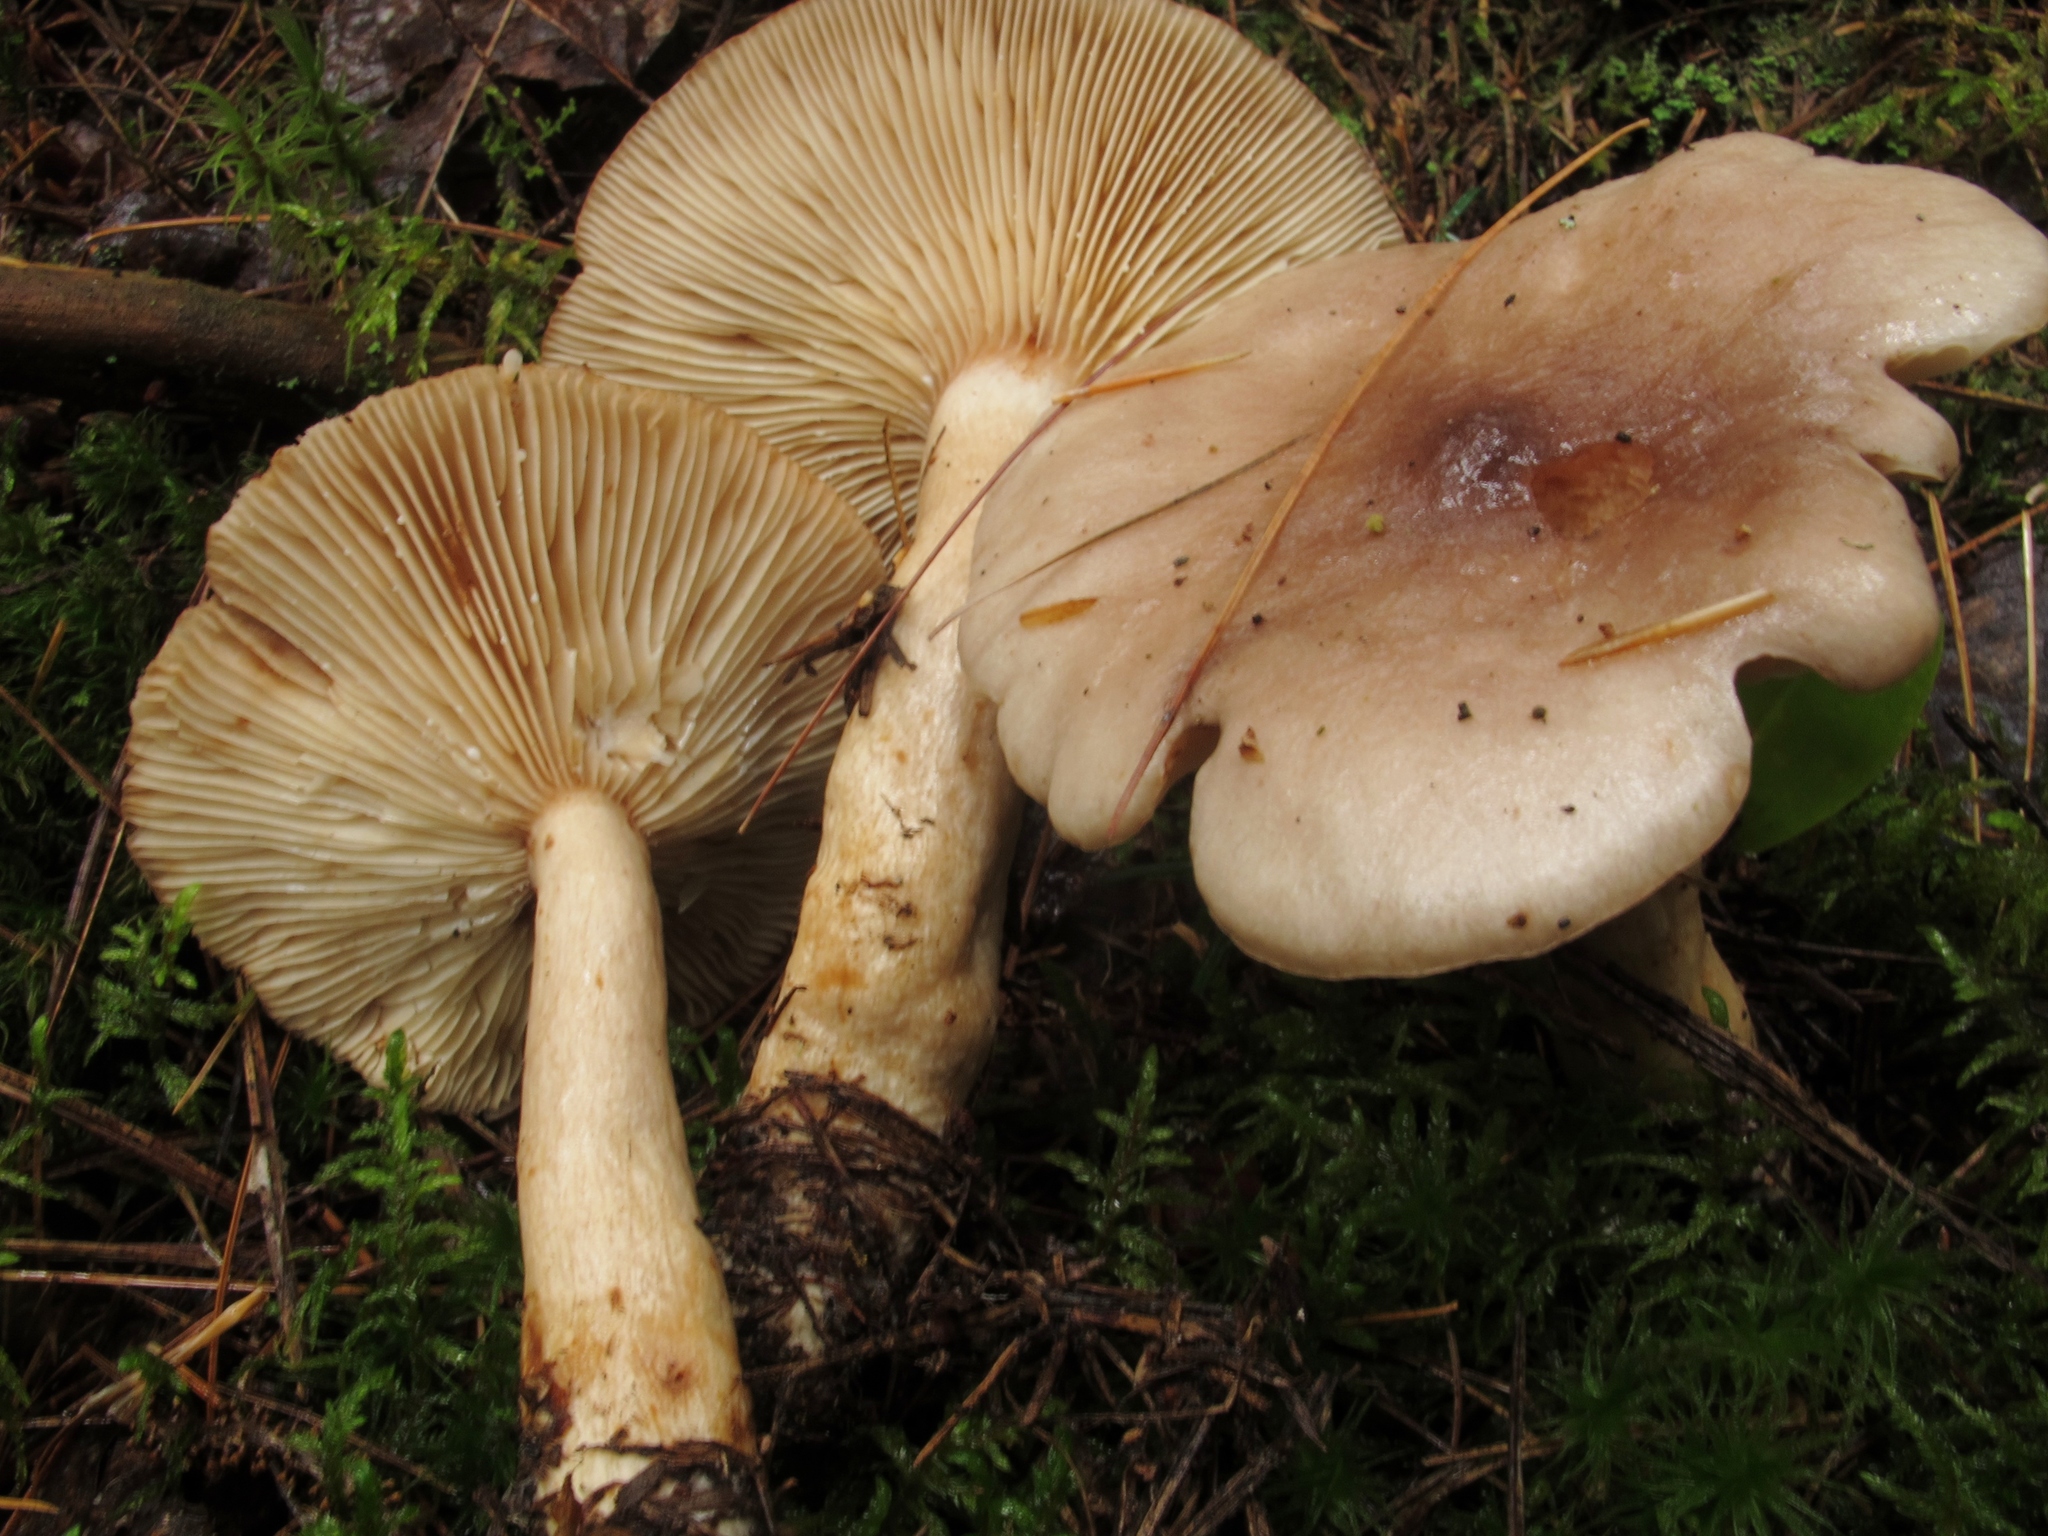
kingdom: Fungi
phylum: Basidiomycota
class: Agaricomycetes
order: Russulales
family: Russulaceae
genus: Lactarius
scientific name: Lactarius vietus
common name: Grey milk-cap
